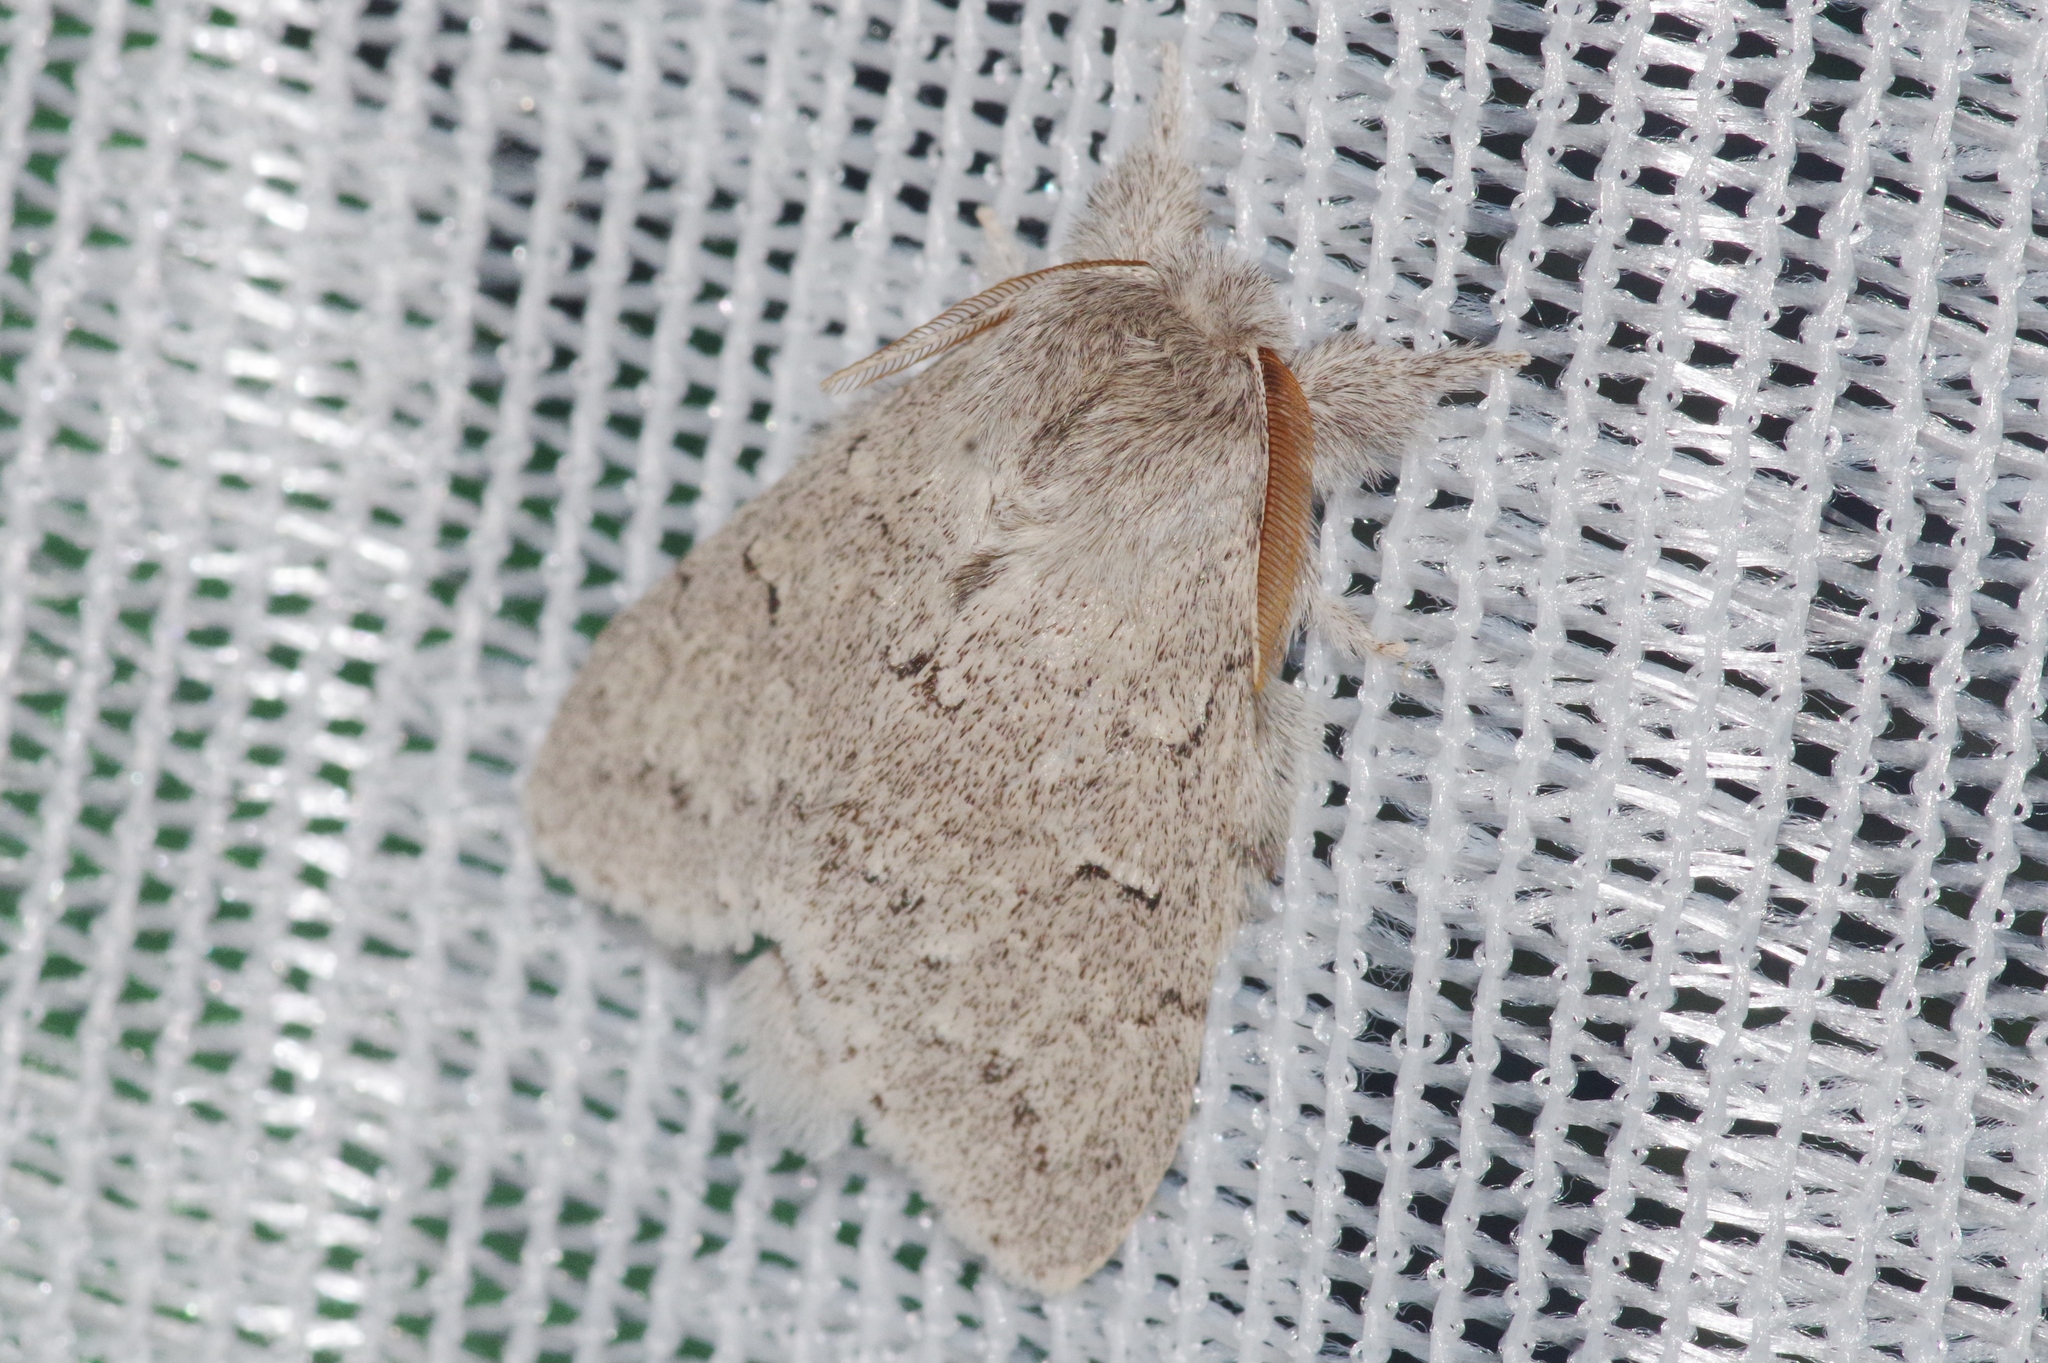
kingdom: Animalia
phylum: Arthropoda
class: Insecta
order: Lepidoptera
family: Notodontidae
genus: Cnethodonta
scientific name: Cnethodonta grisescens
